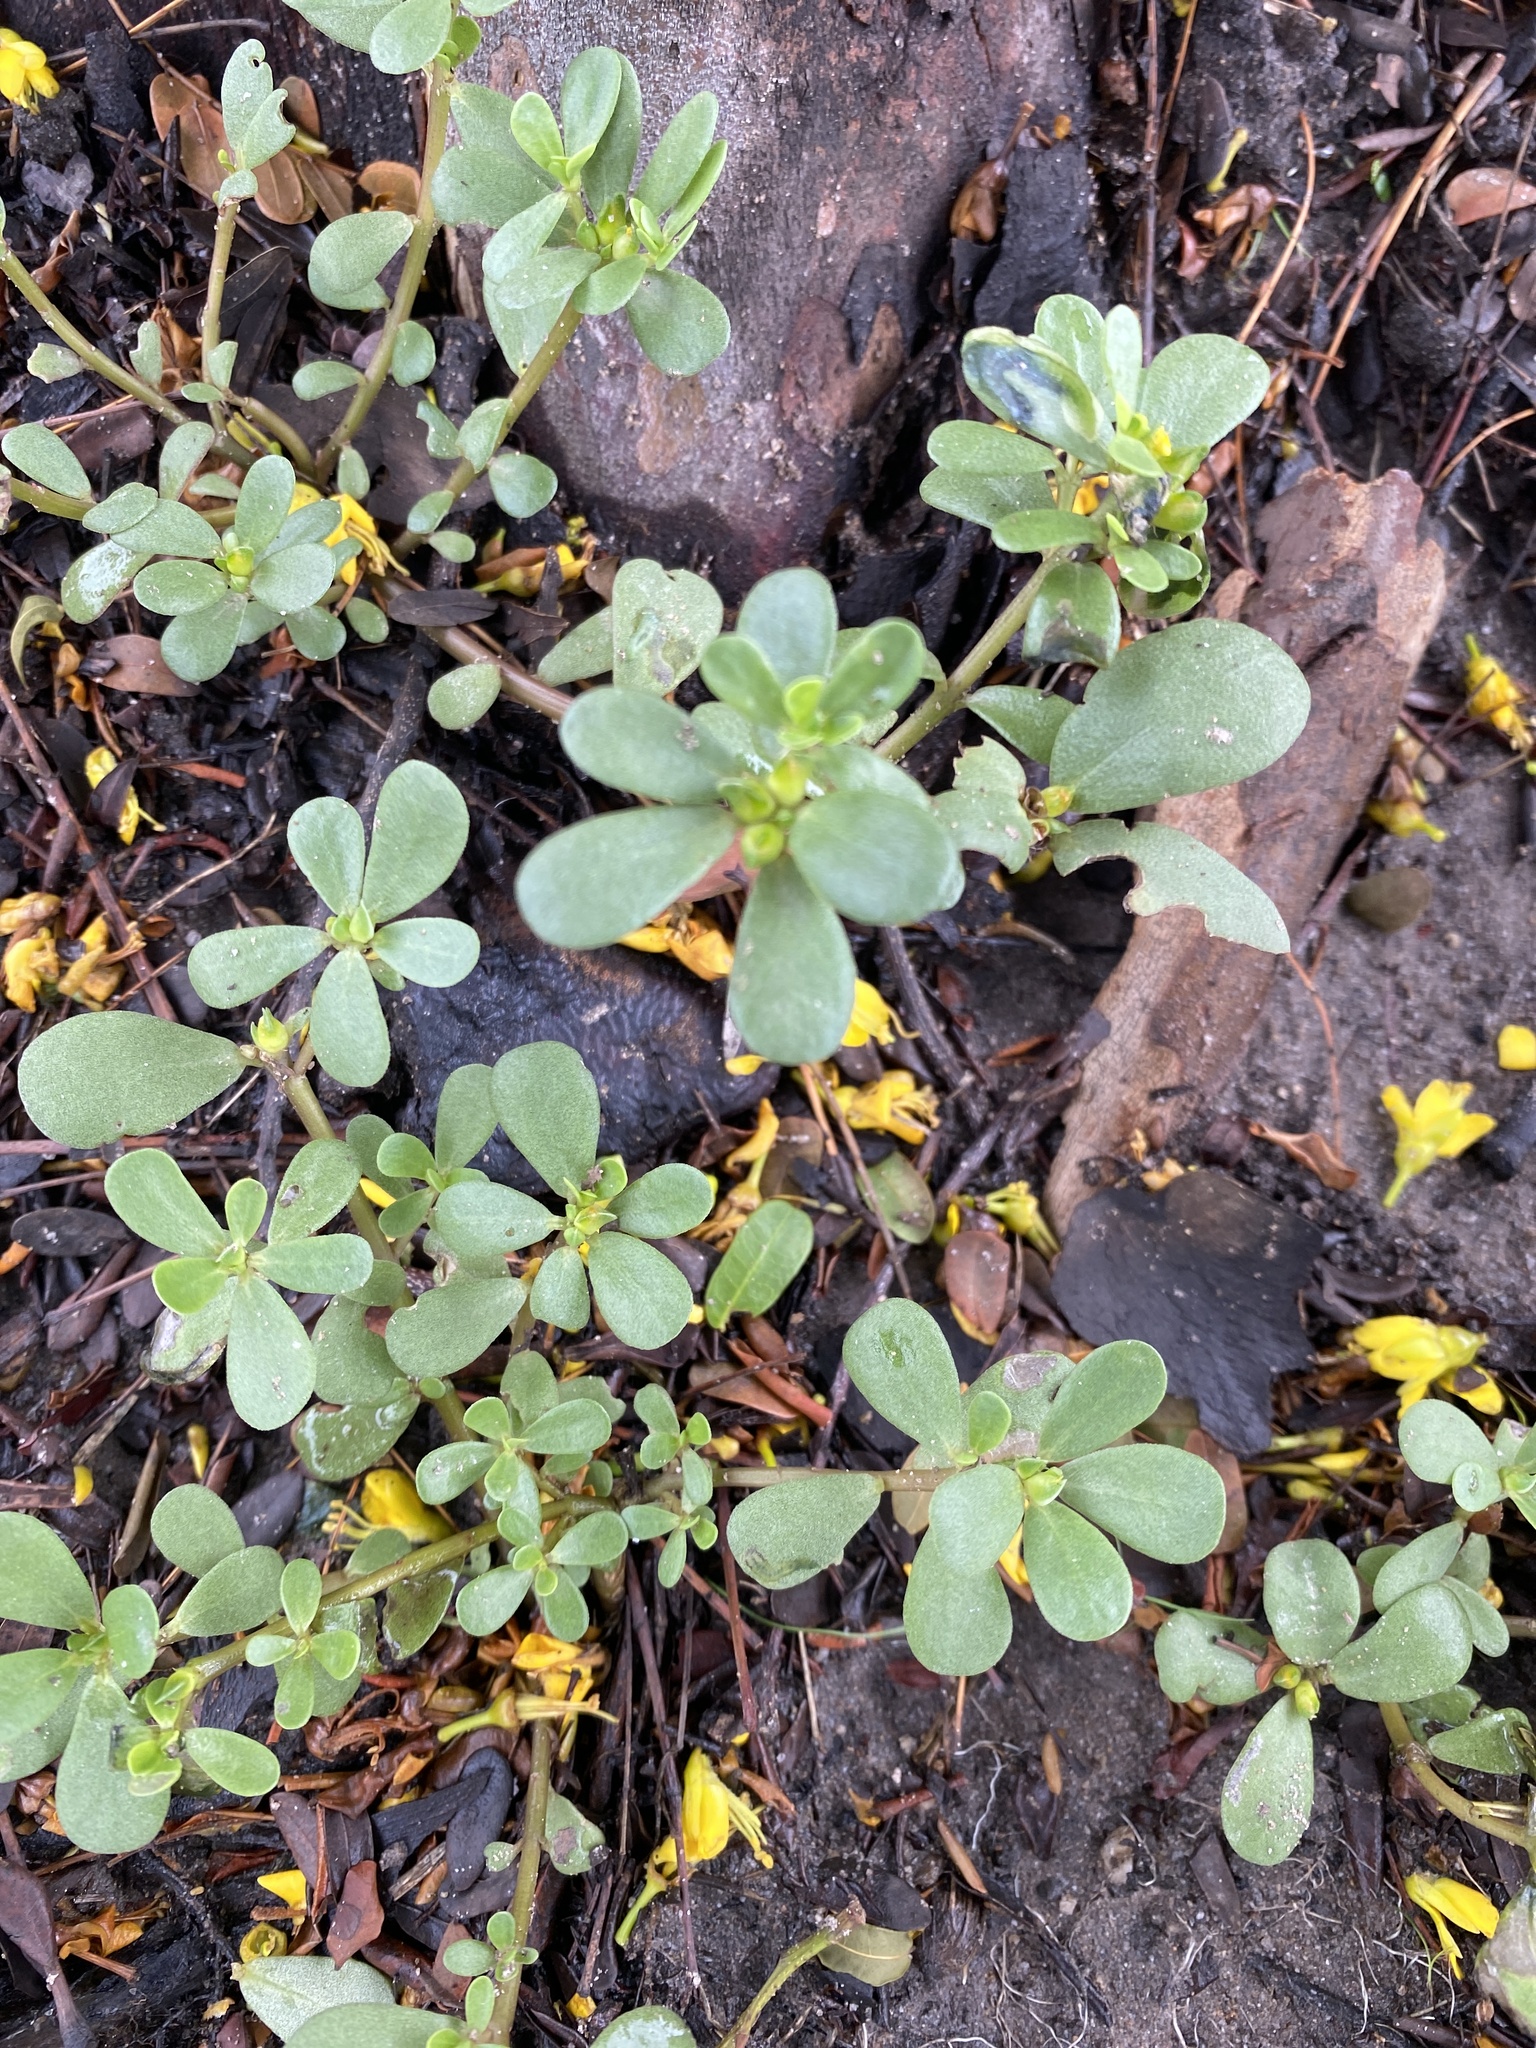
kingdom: Plantae
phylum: Tracheophyta
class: Magnoliopsida
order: Caryophyllales
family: Portulacaceae
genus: Portulaca
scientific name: Portulaca oleracea
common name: Common purslane
